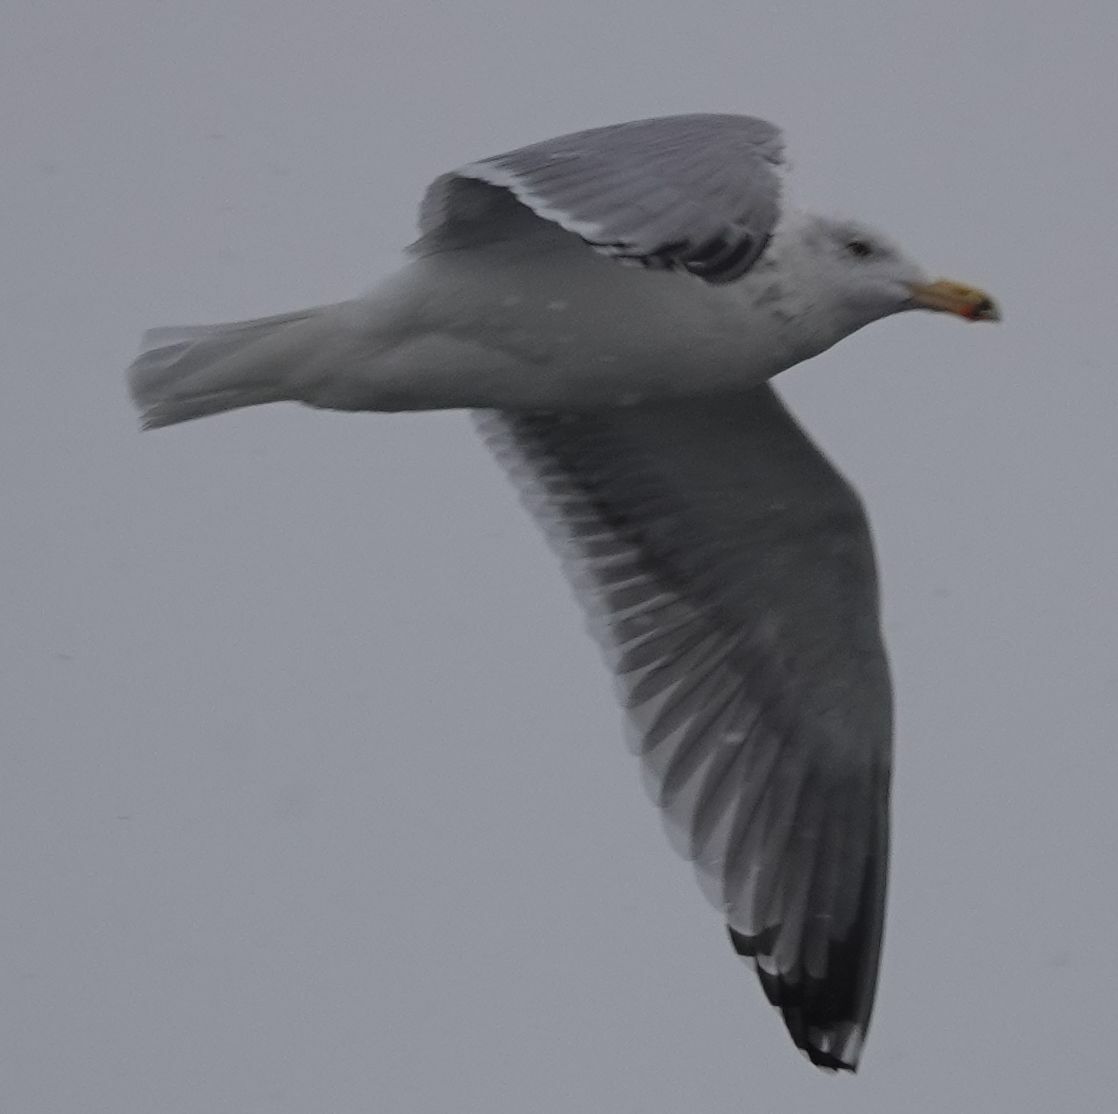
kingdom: Animalia
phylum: Chordata
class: Aves
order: Charadriiformes
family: Laridae
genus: Larus
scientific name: Larus argentatus
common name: Herring gull
